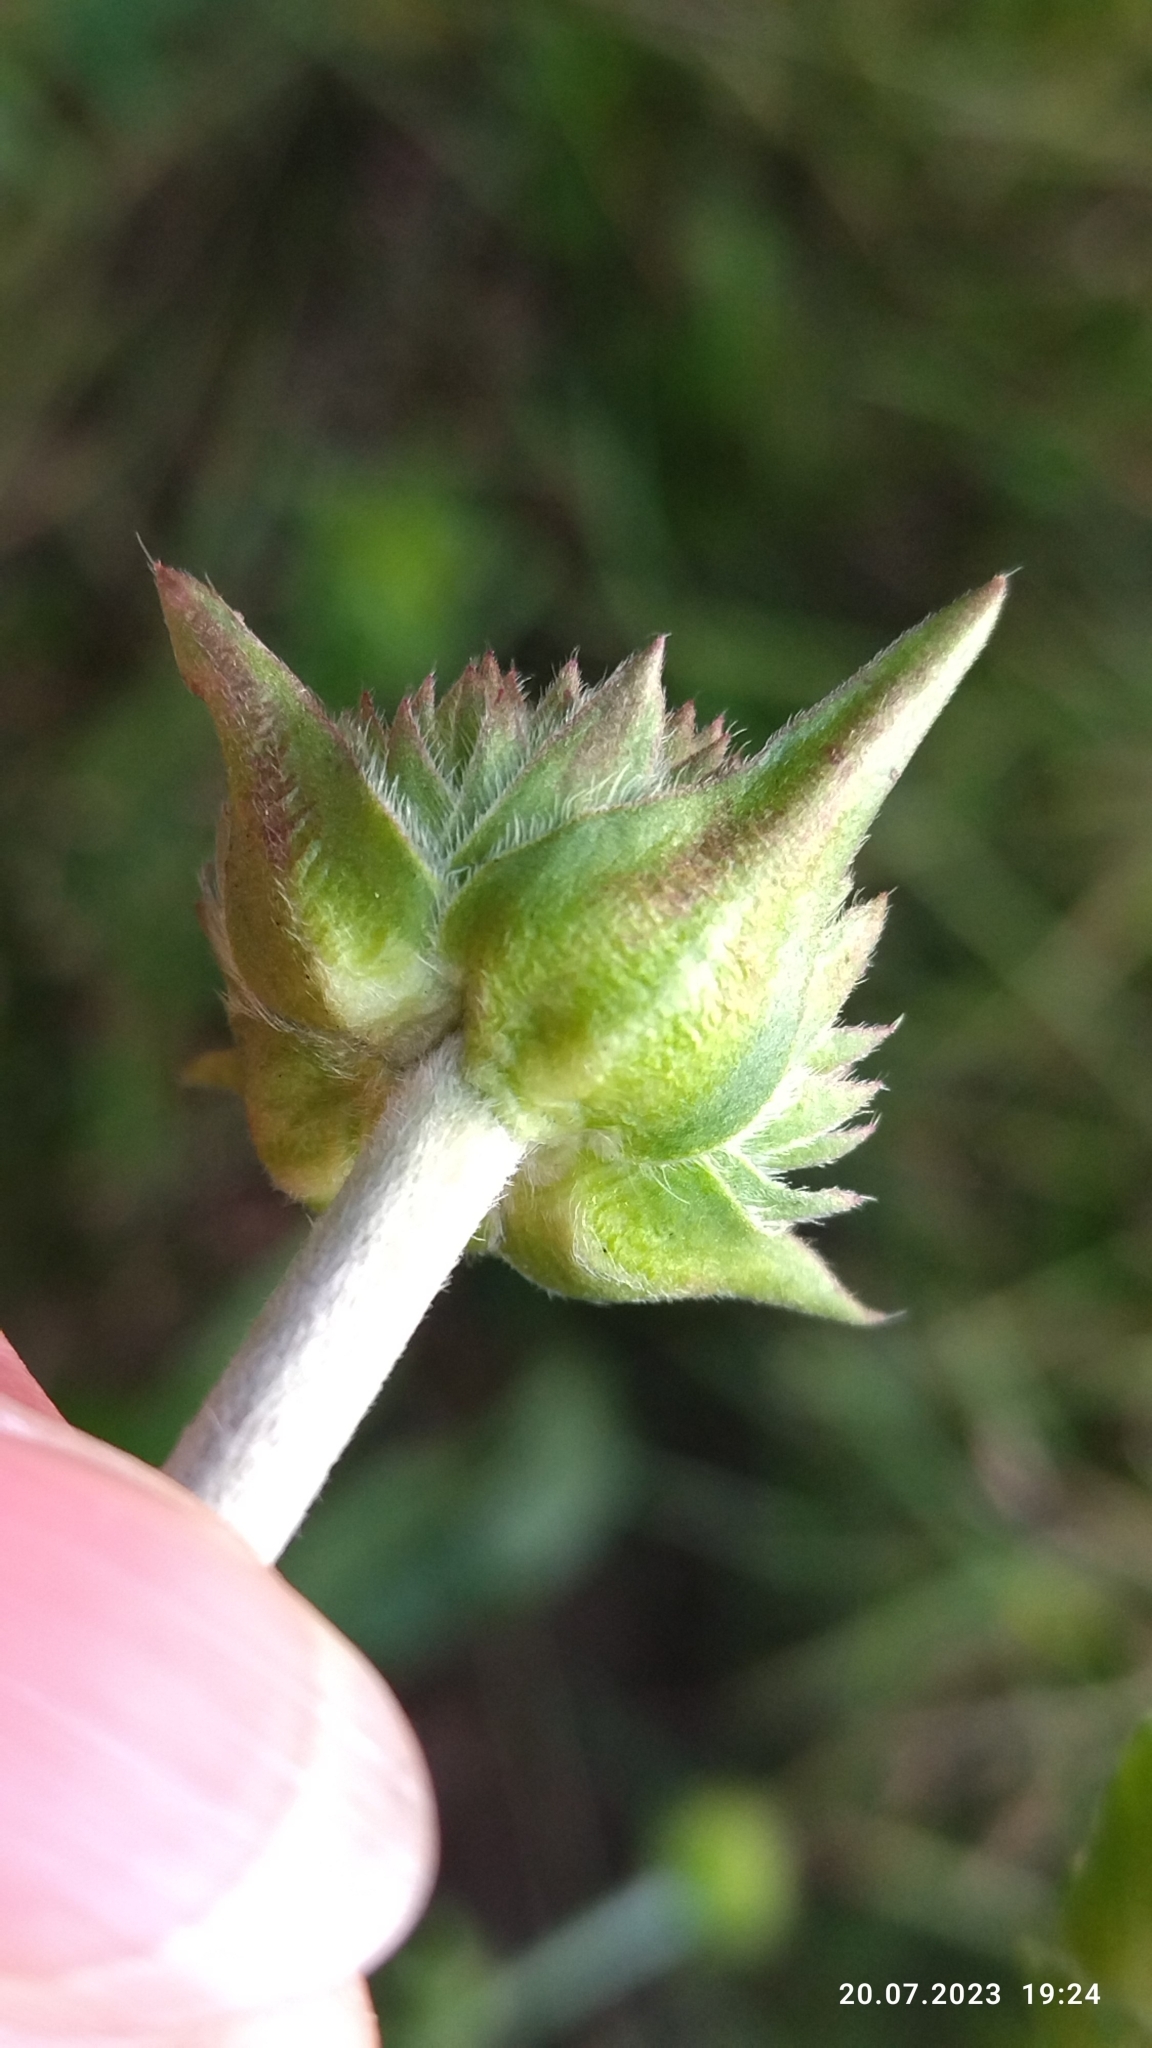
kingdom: Plantae
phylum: Tracheophyta
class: Magnoliopsida
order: Dipsacales
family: Caprifoliaceae
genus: Succisa
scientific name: Succisa pratensis
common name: Devil's-bit
